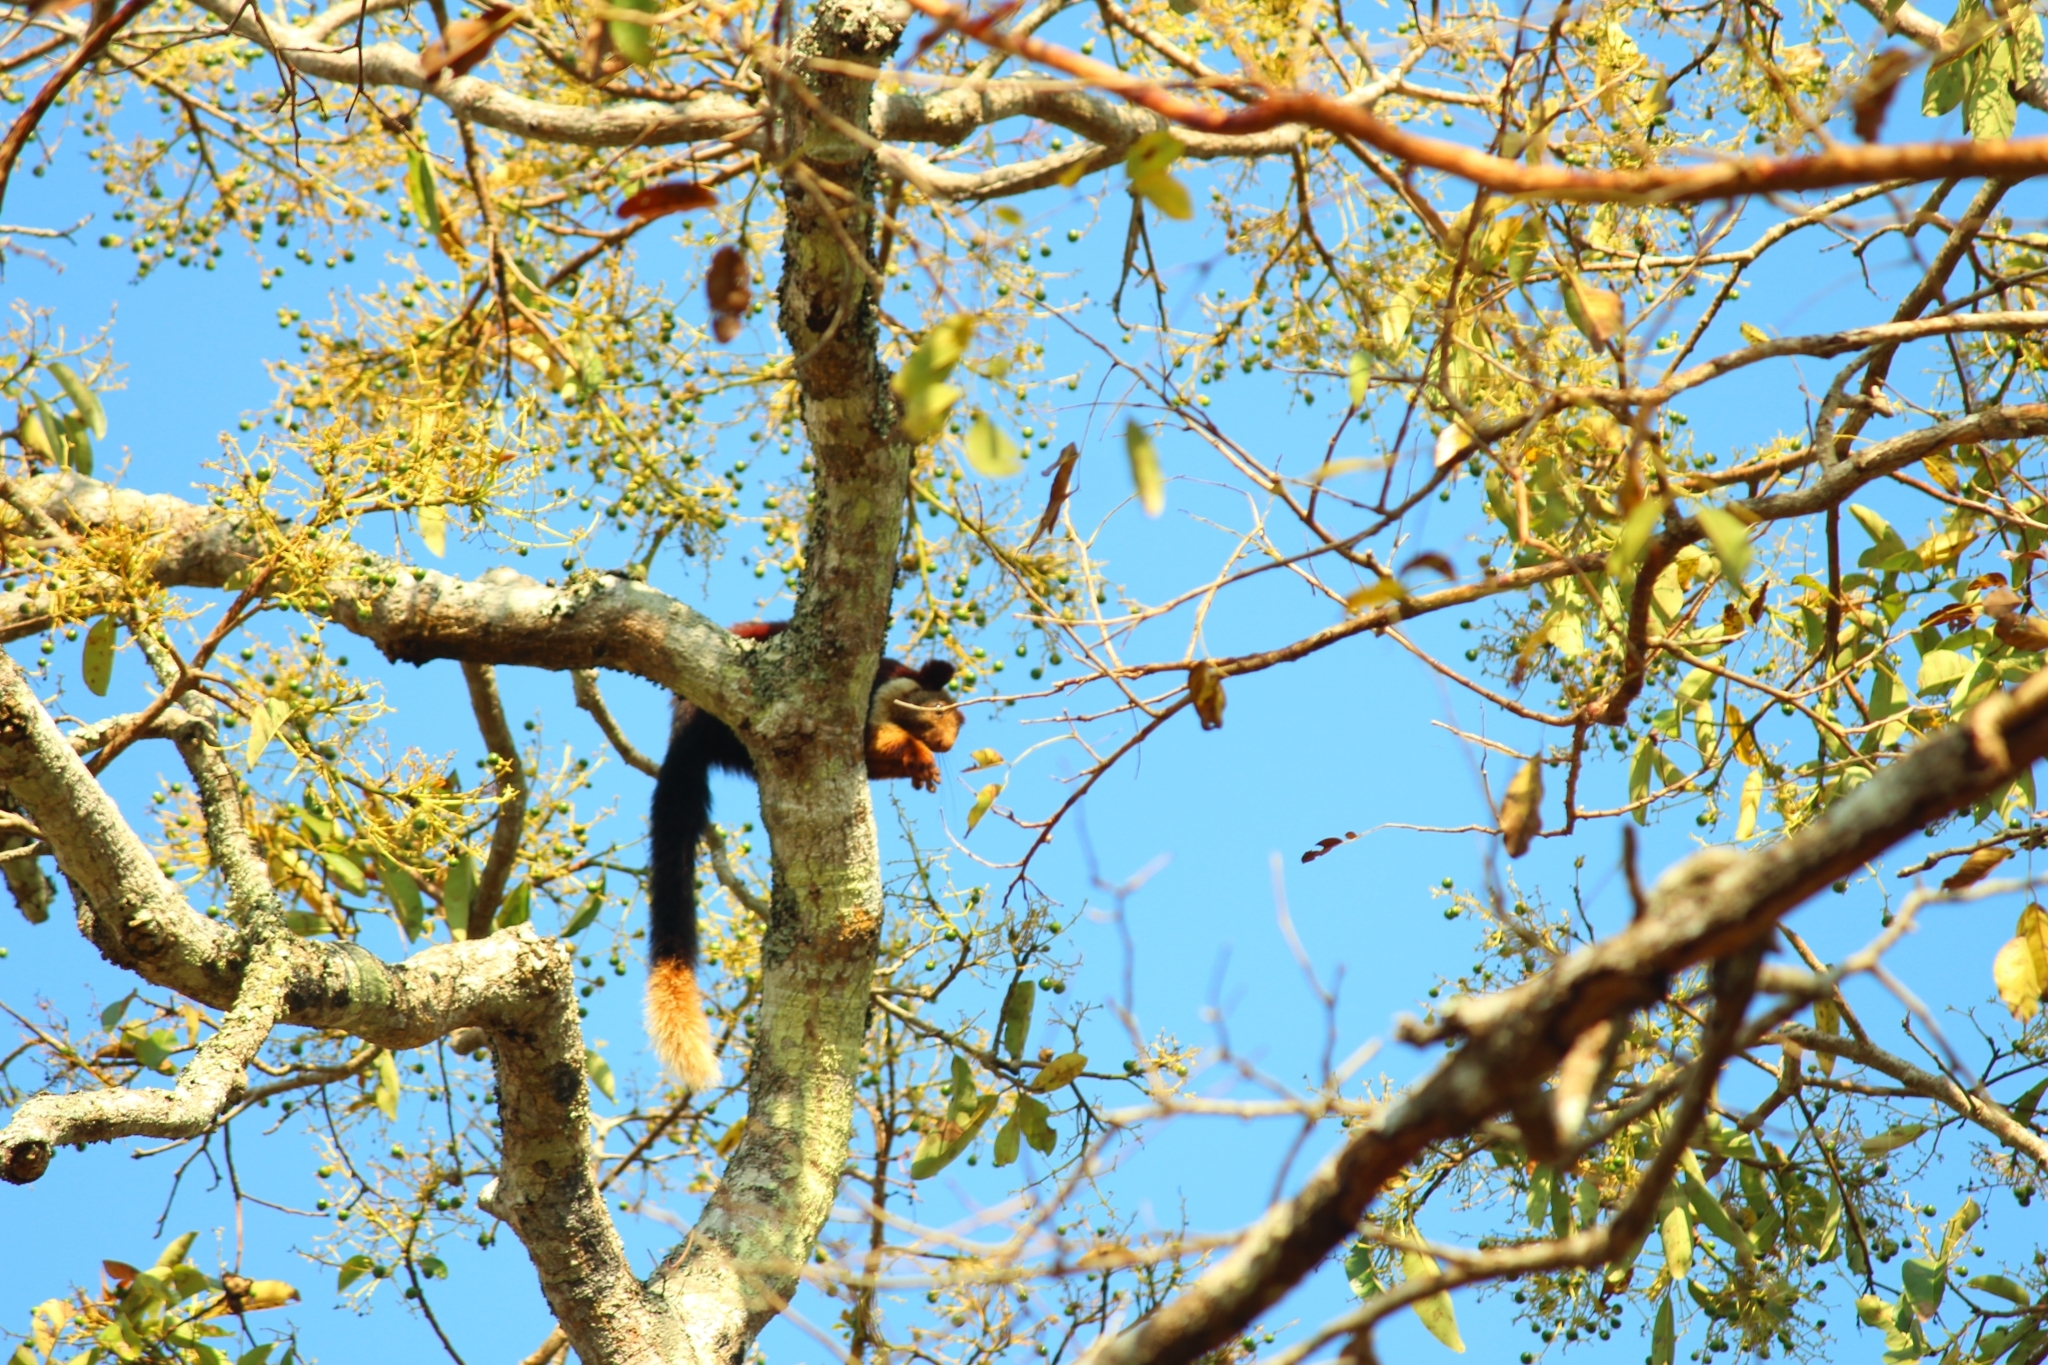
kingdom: Animalia
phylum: Chordata
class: Mammalia
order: Rodentia
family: Sciuridae
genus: Ratufa
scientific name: Ratufa indica
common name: Indian giant squirrel
